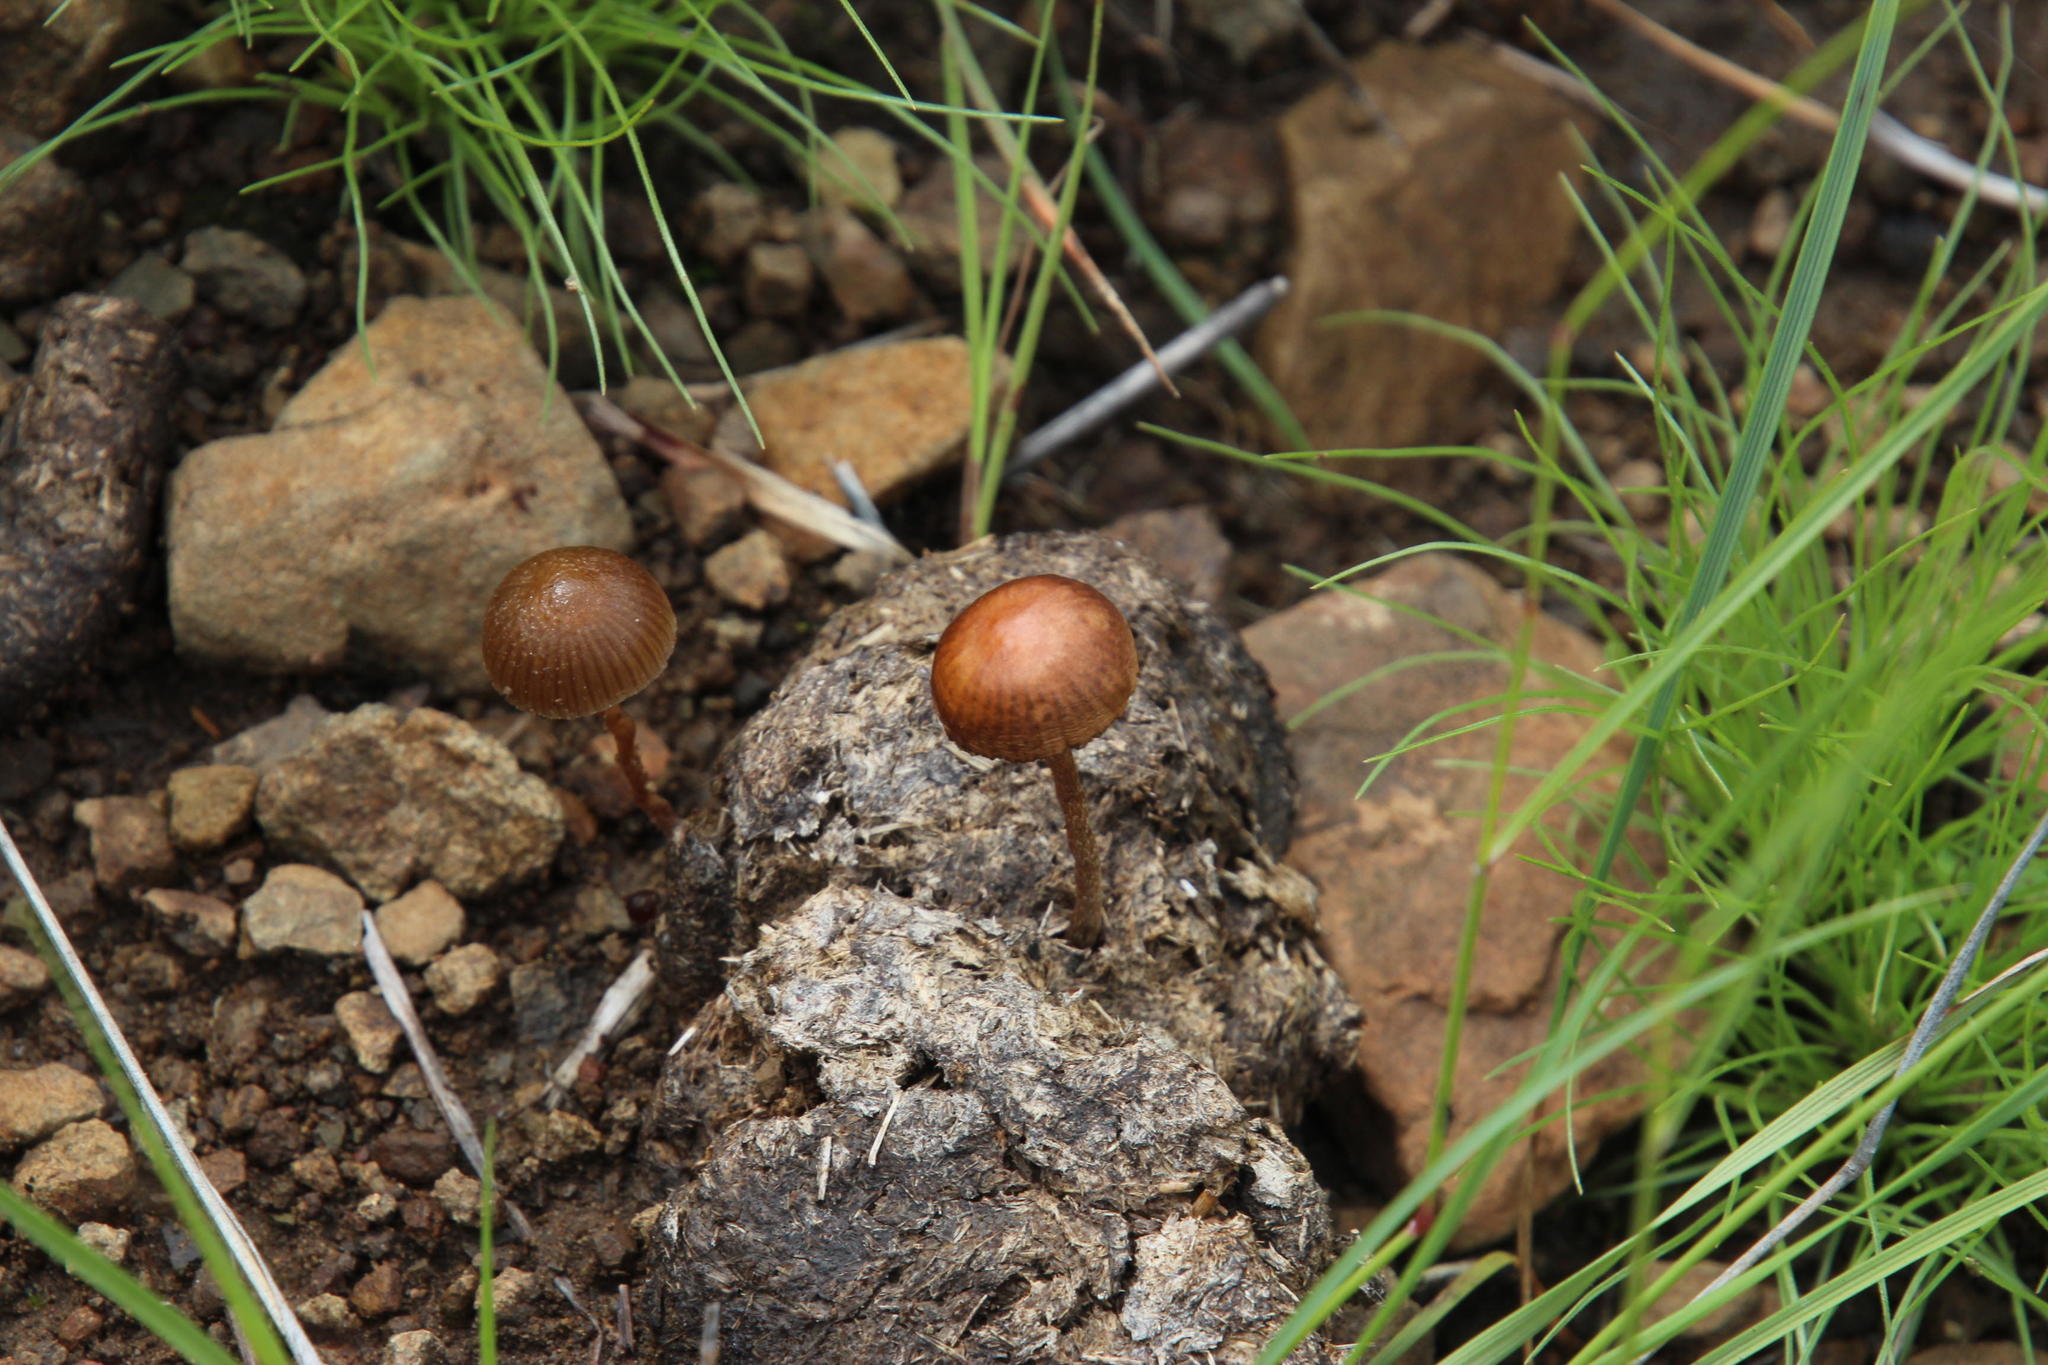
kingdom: Fungi
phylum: Basidiomycota
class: Agaricomycetes
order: Agaricales
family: Strophariaceae
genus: Deconica
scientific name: Deconica coprophila
